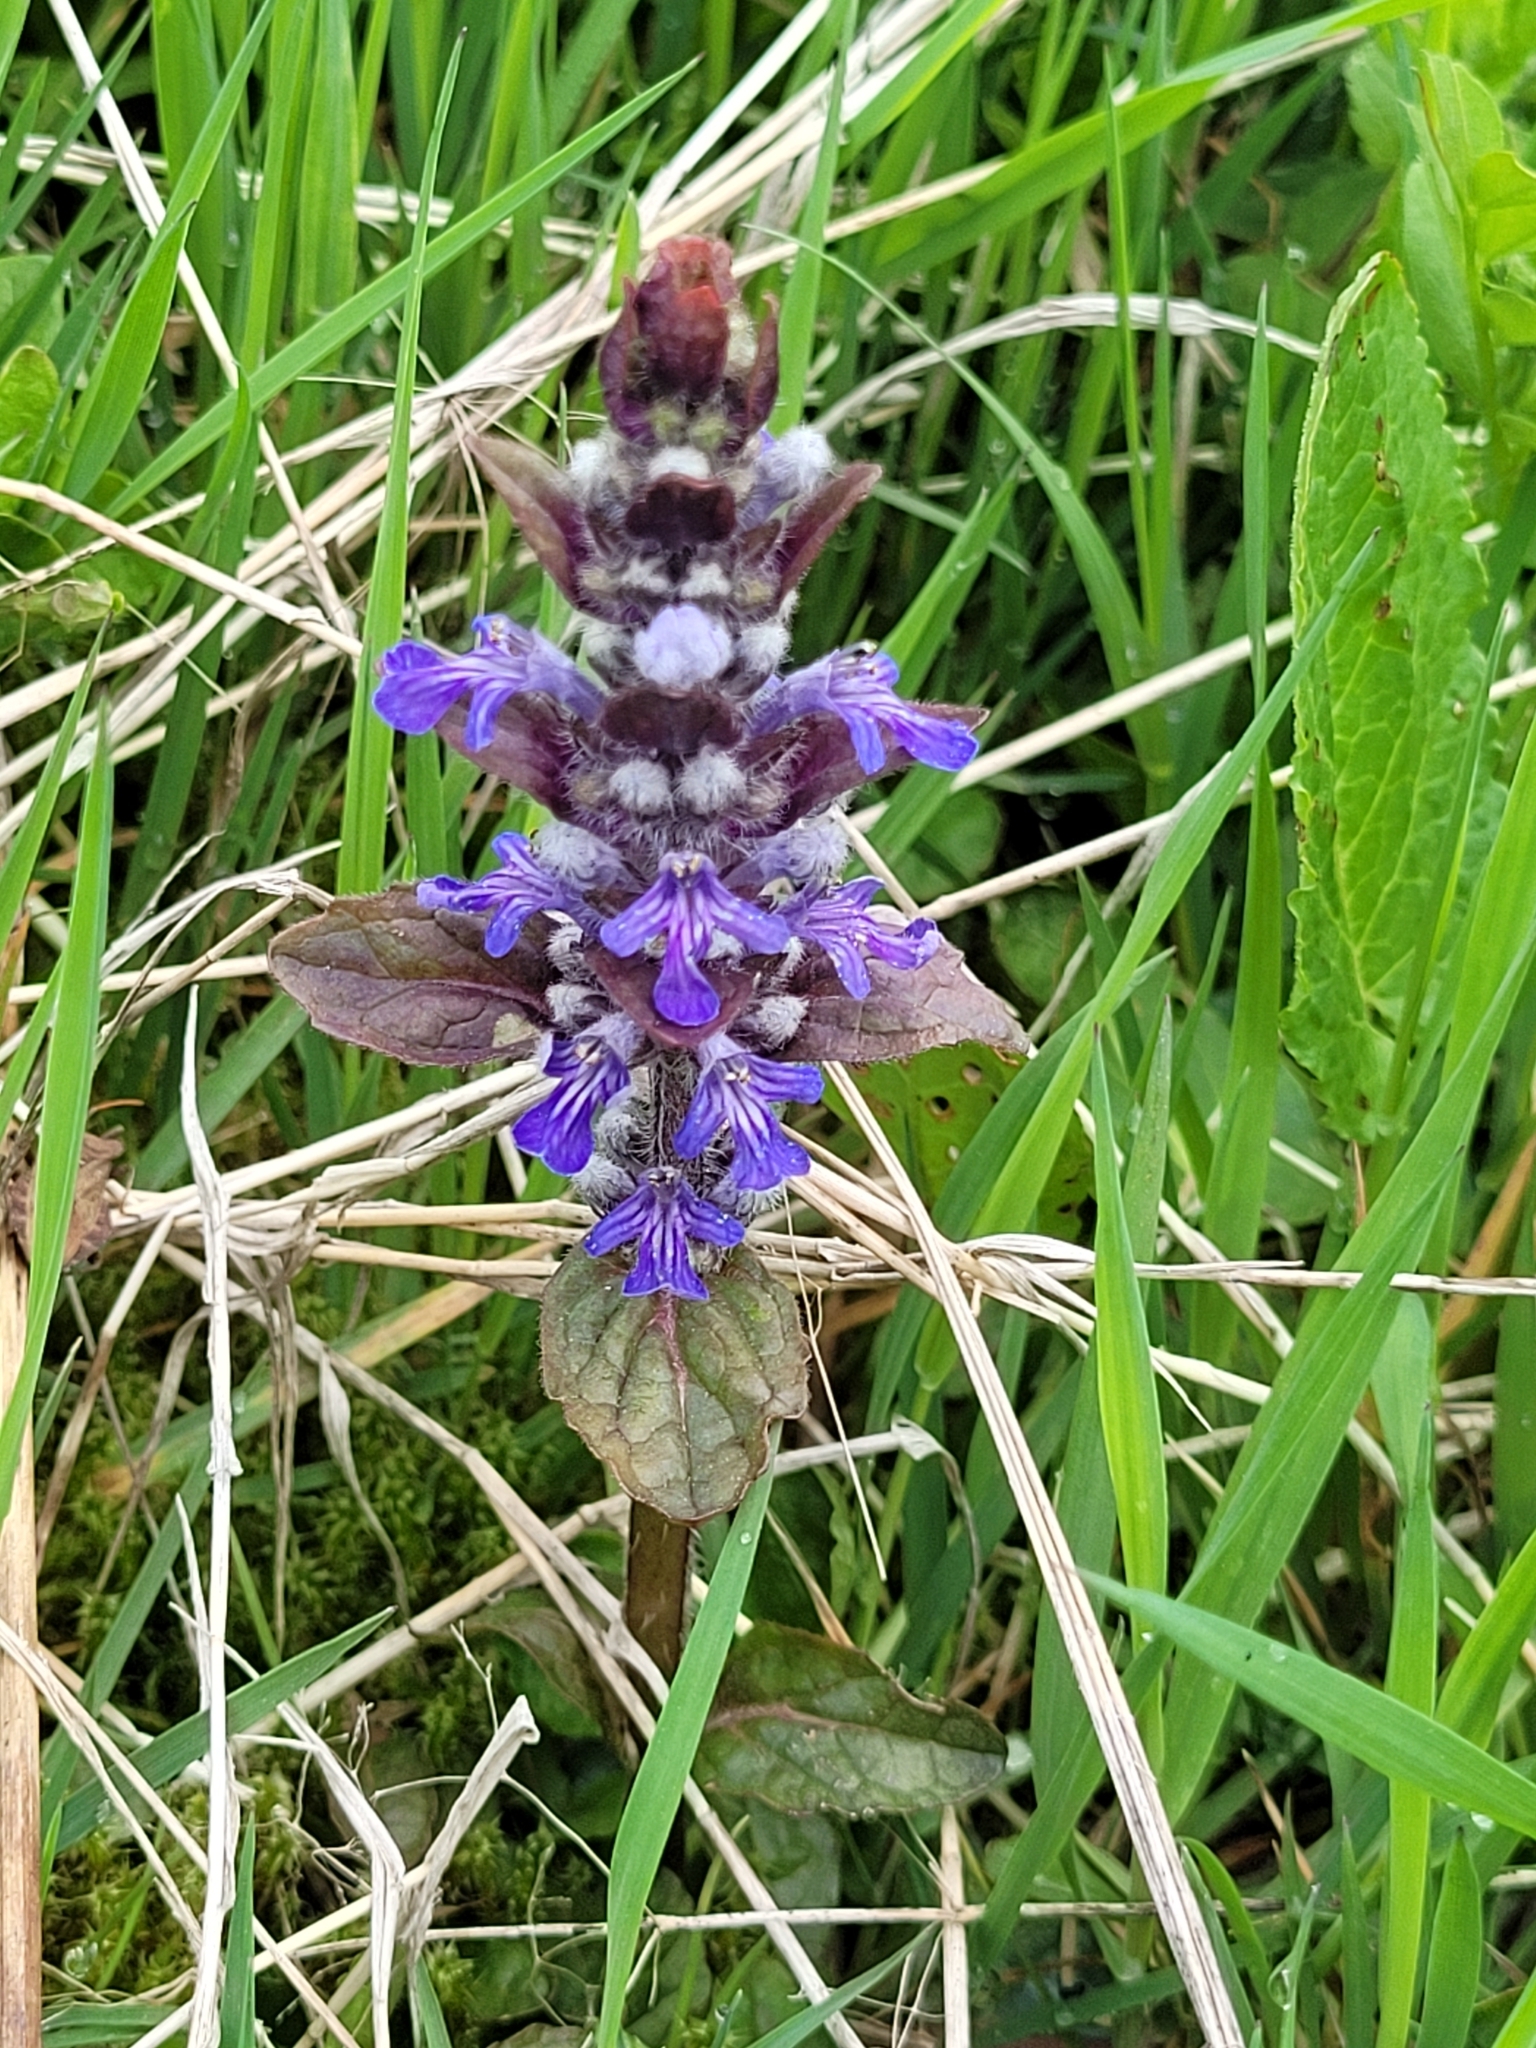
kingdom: Plantae
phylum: Tracheophyta
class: Magnoliopsida
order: Lamiales
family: Lamiaceae
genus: Ajuga
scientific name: Ajuga reptans
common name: Bugle
